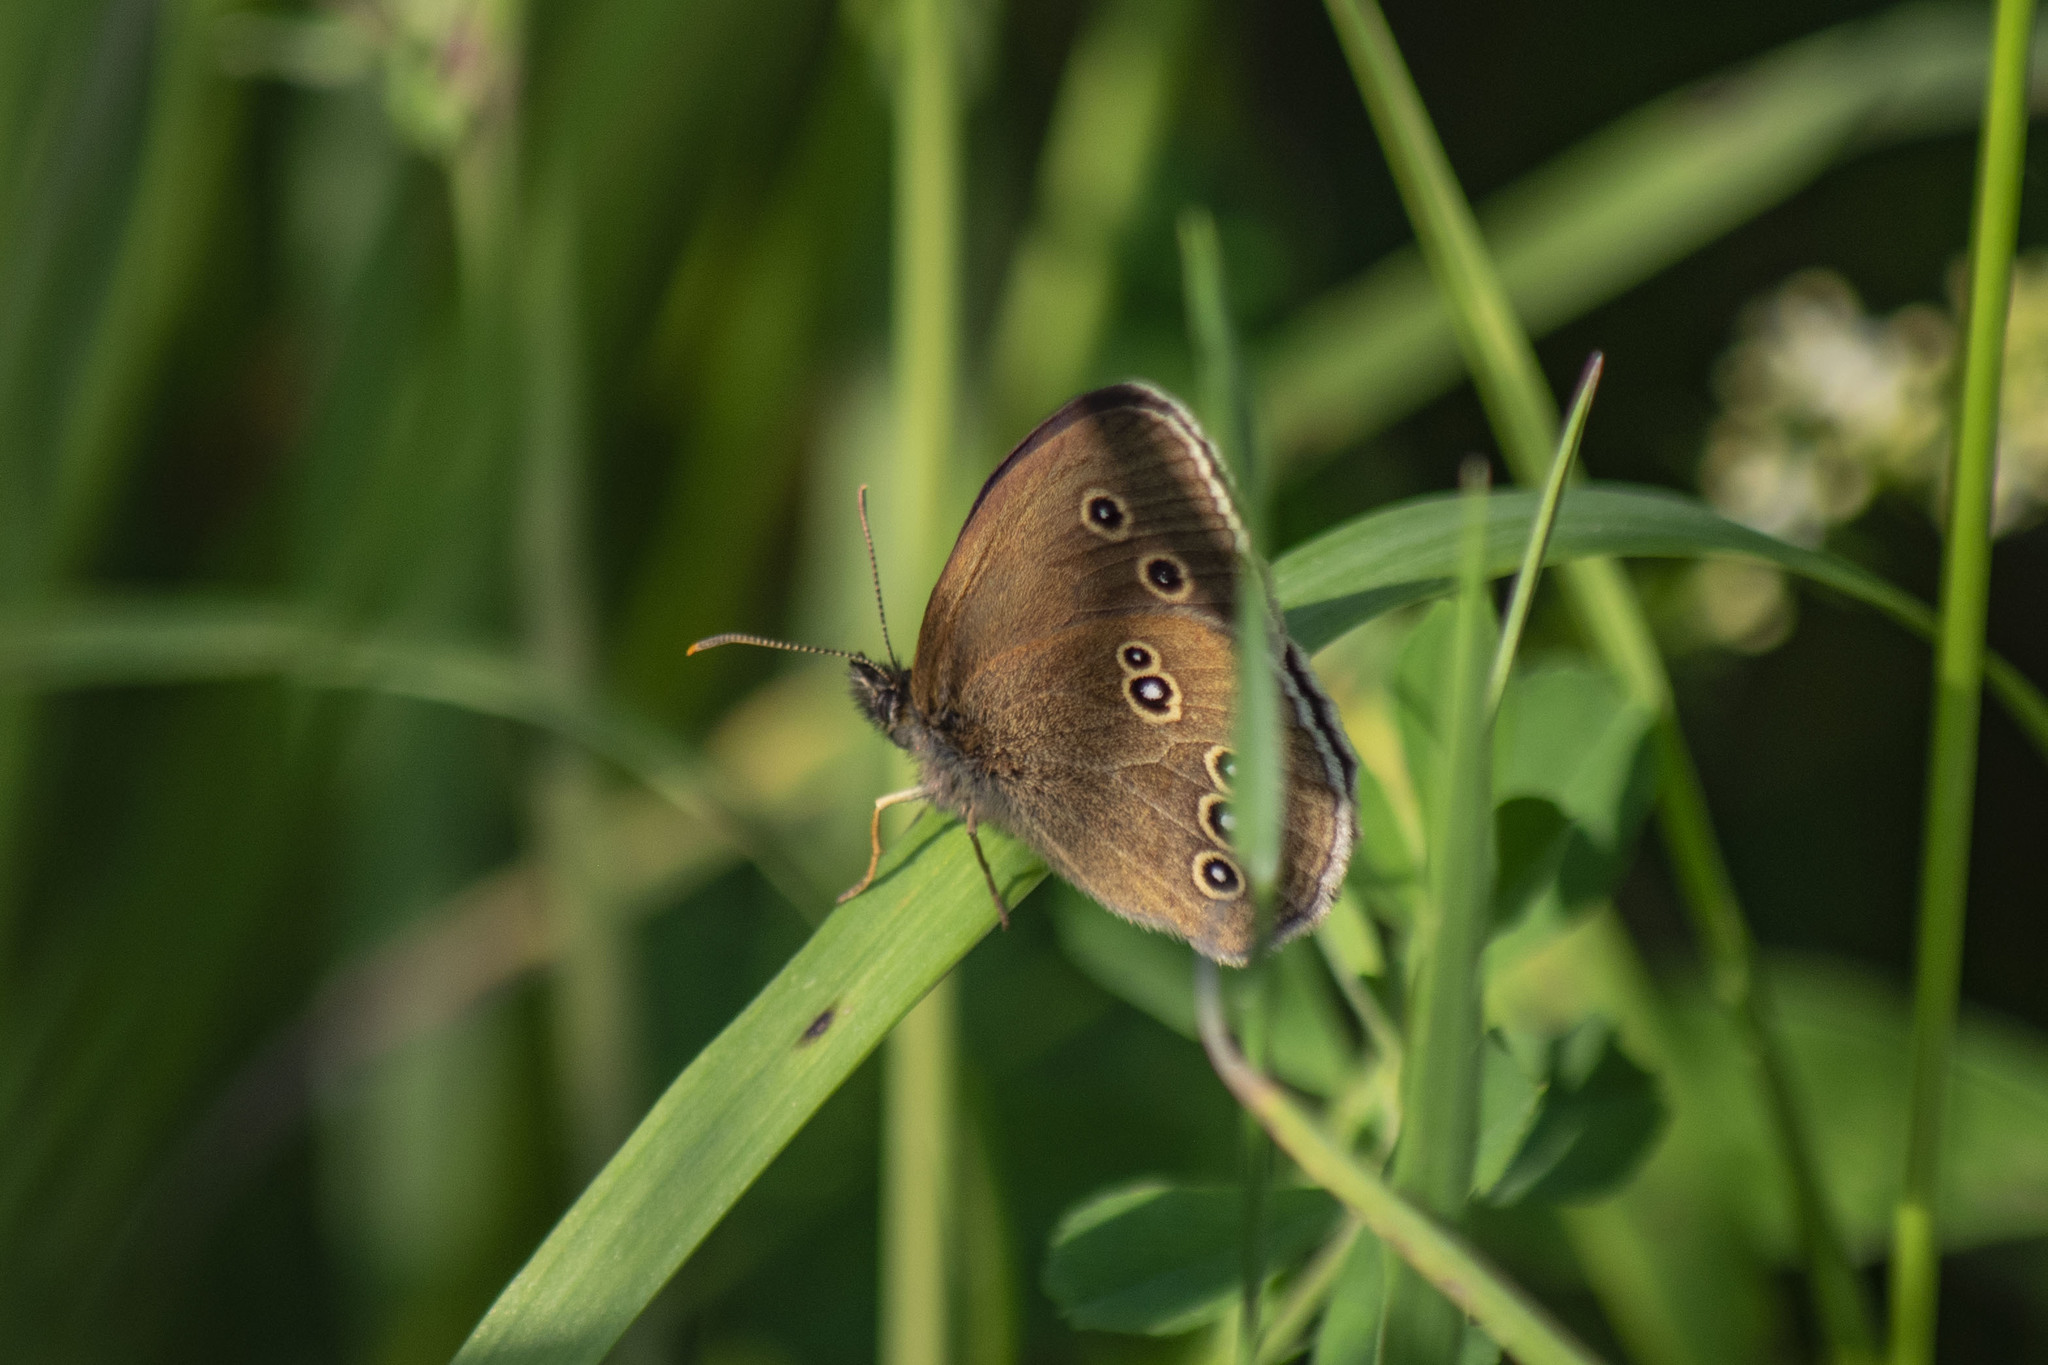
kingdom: Animalia
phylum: Arthropoda
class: Insecta
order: Lepidoptera
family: Nymphalidae
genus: Aphantopus
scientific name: Aphantopus hyperantus
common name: Ringlet
